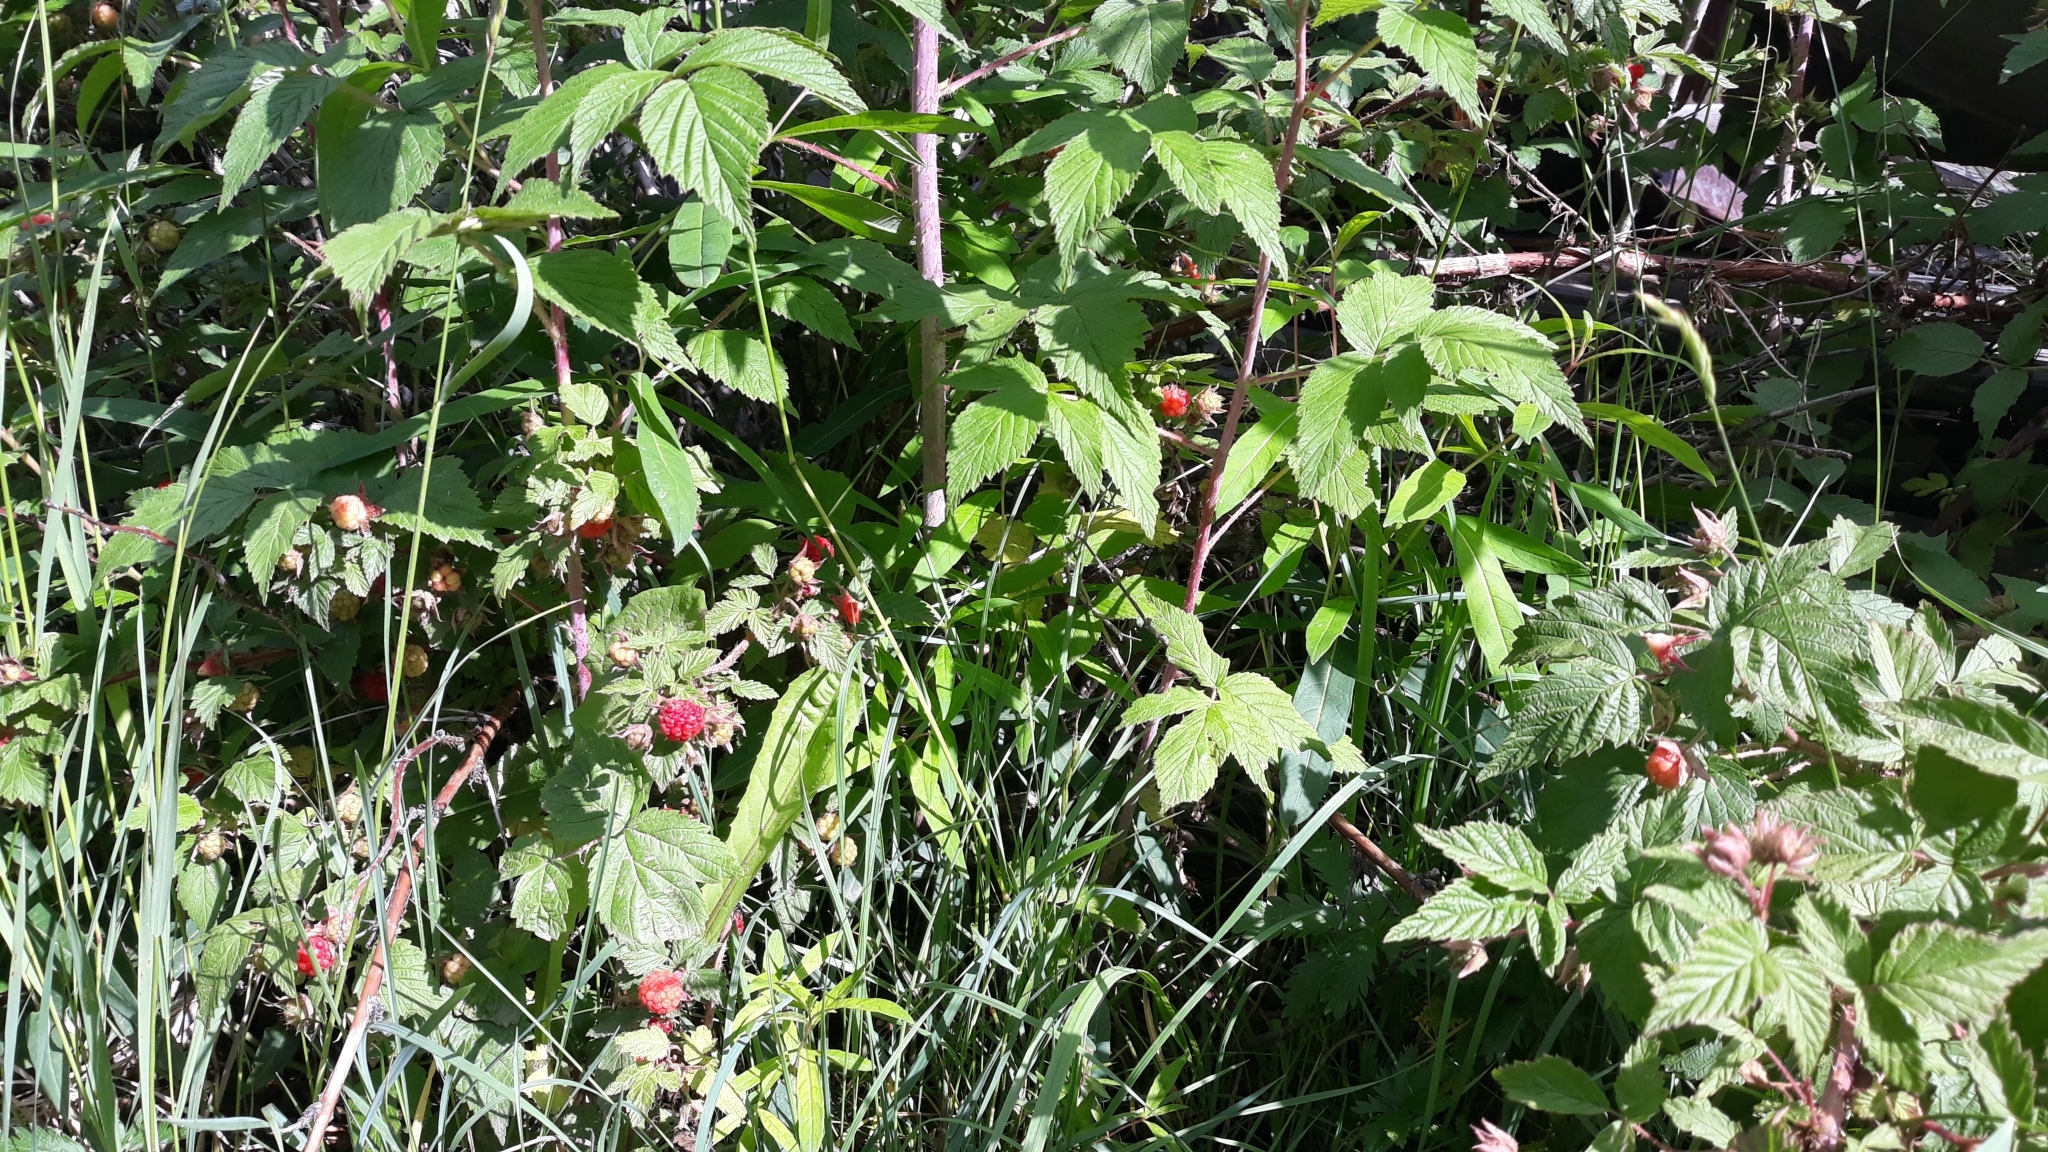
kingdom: Plantae
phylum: Tracheophyta
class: Magnoliopsida
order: Rosales
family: Rosaceae
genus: Rubus
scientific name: Rubus idaeus
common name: Raspberry
